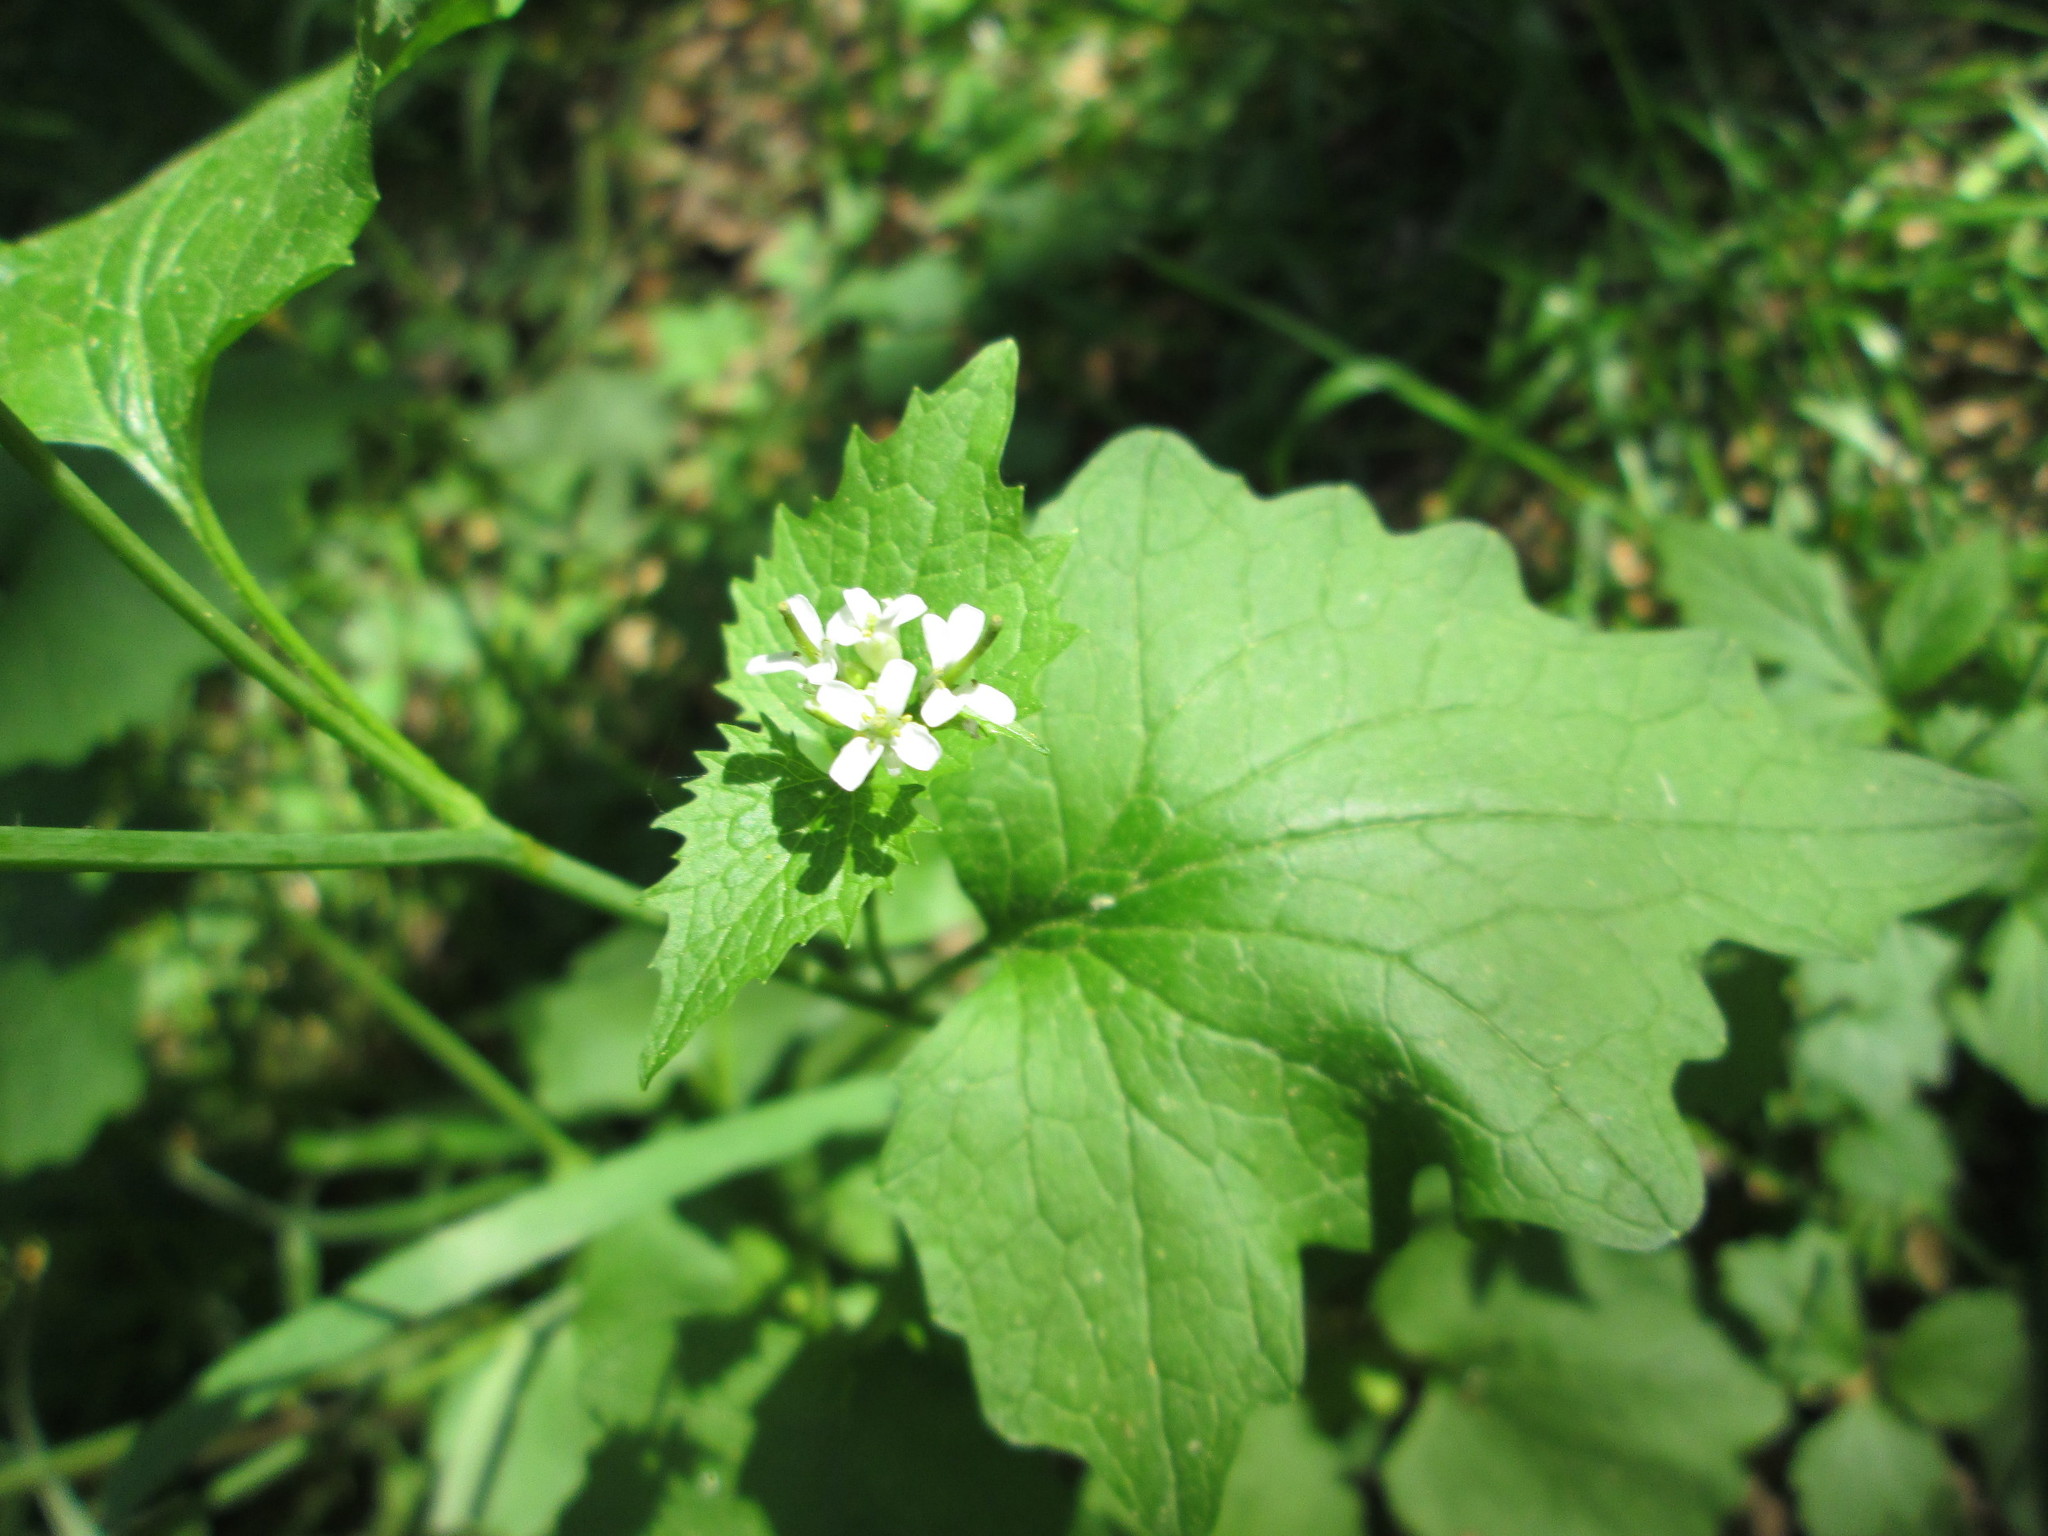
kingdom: Plantae
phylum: Tracheophyta
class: Magnoliopsida
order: Brassicales
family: Brassicaceae
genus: Alliaria
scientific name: Alliaria petiolata
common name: Garlic mustard
